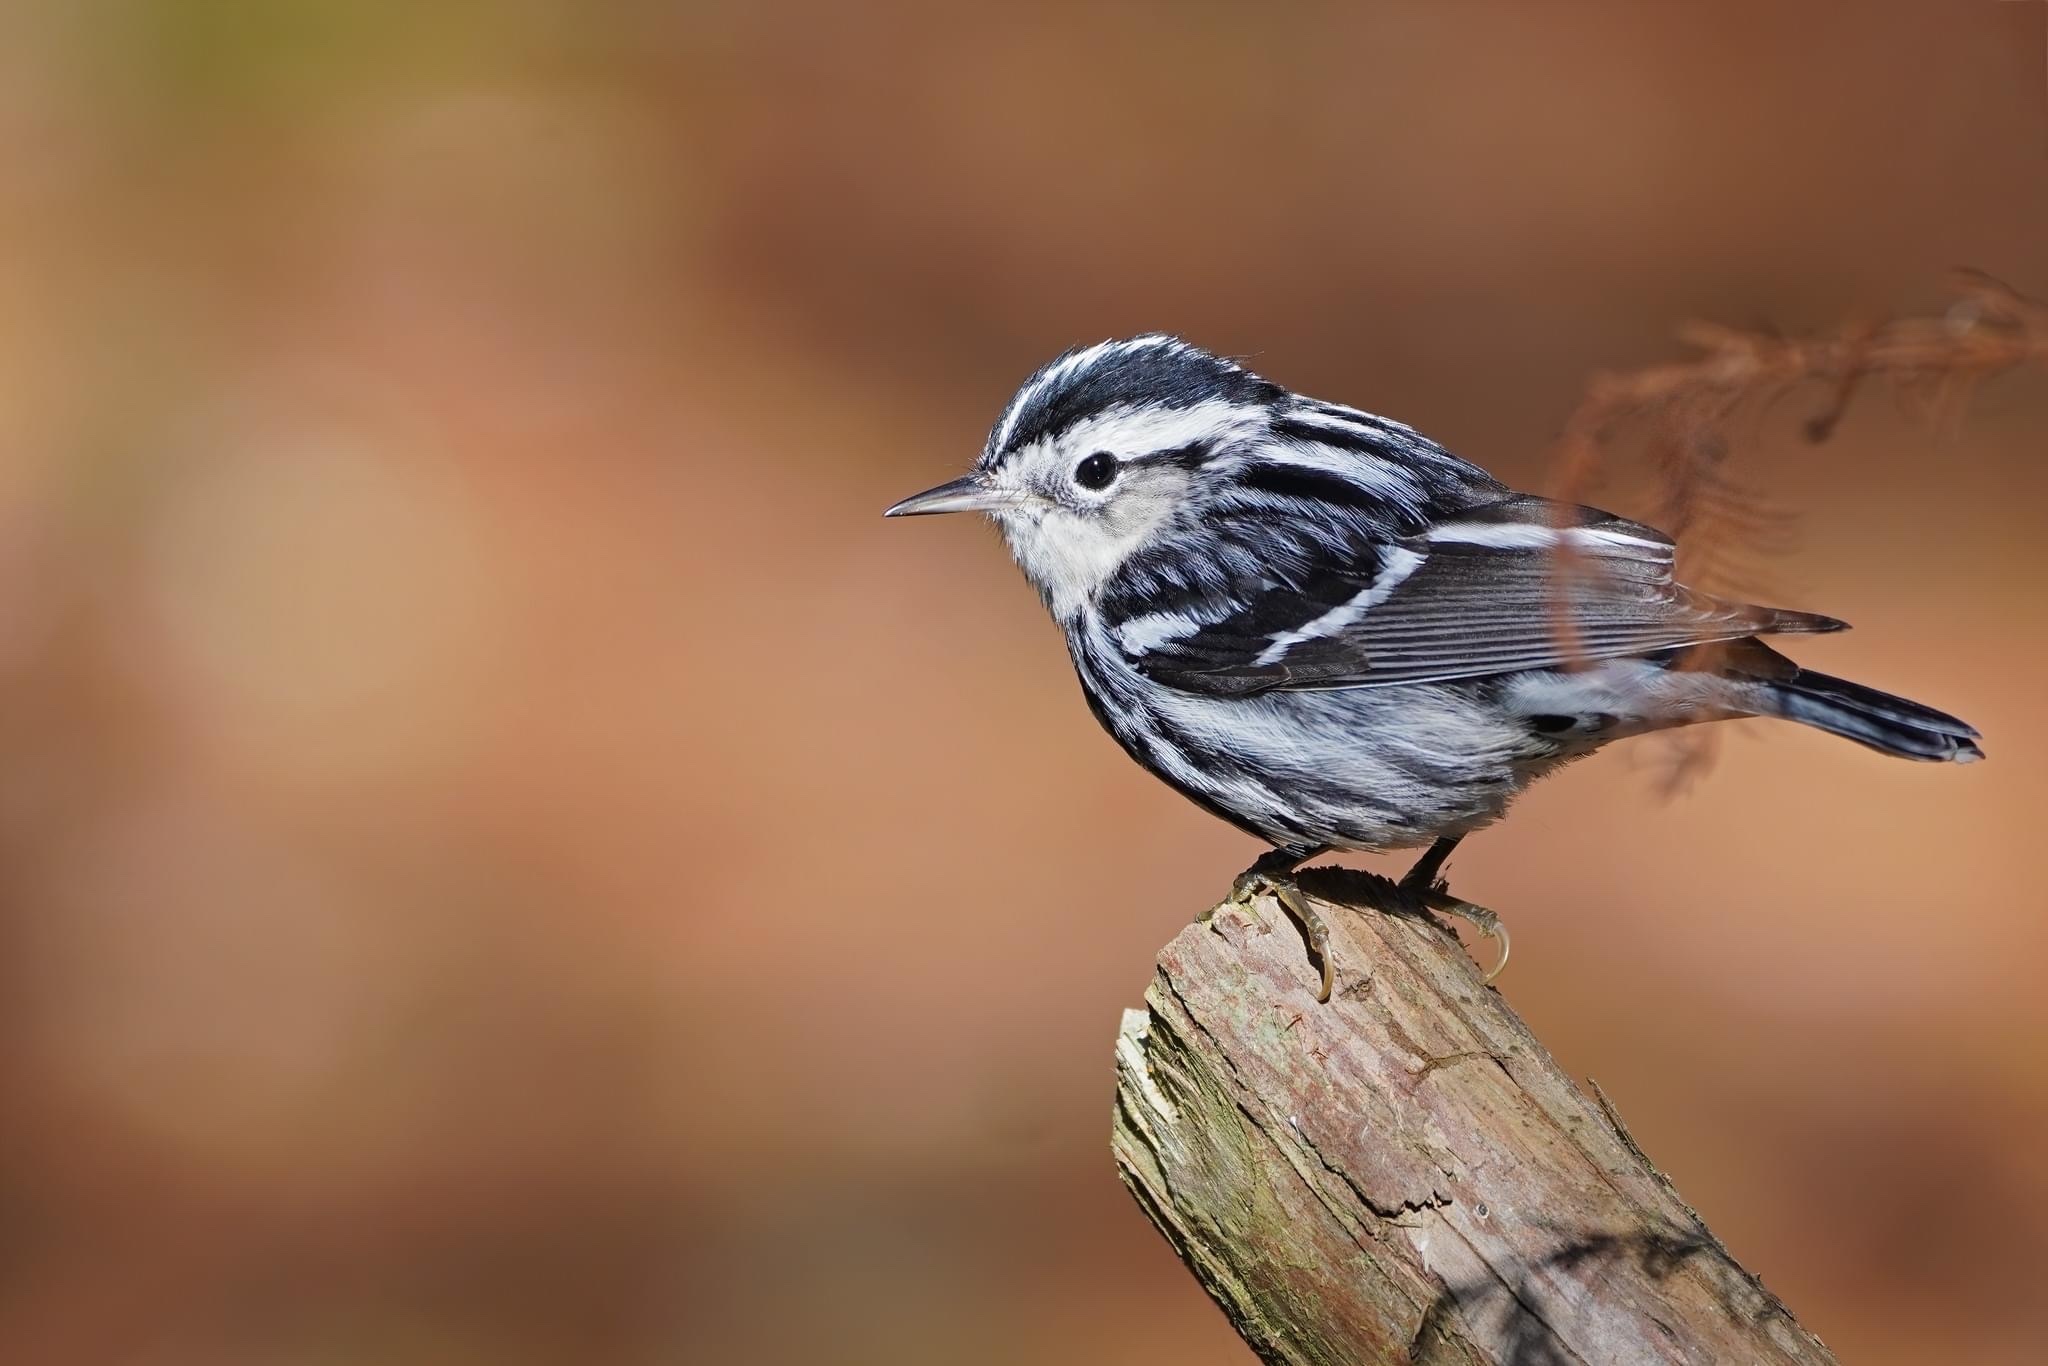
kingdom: Animalia
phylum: Chordata
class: Aves
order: Passeriformes
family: Parulidae
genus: Mniotilta
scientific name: Mniotilta varia
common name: Black-and-white warbler
